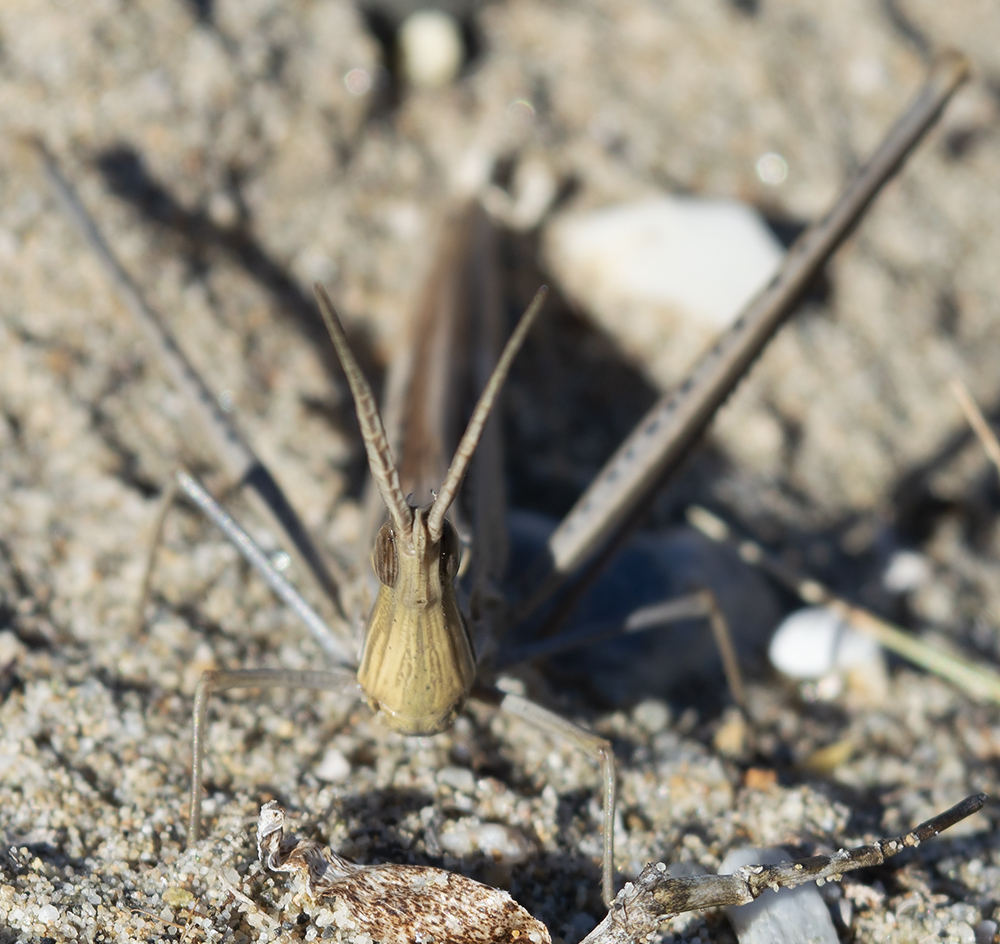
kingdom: Animalia
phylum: Arthropoda
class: Insecta
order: Orthoptera
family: Acrididae
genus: Truxalis
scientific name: Truxalis nasuta
